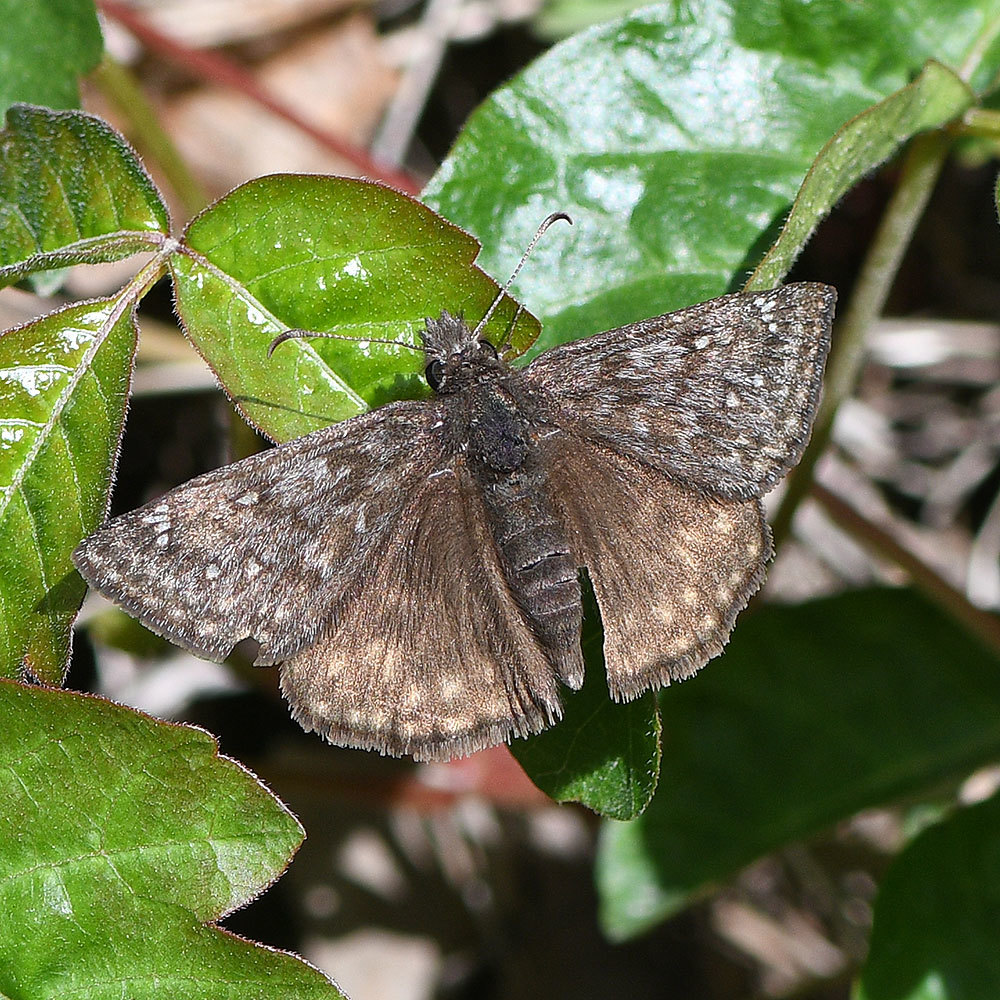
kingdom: Animalia
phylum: Arthropoda
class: Insecta
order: Lepidoptera
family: Hesperiidae
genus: Erynnis
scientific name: Erynnis propertius
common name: Propertius duskywing
